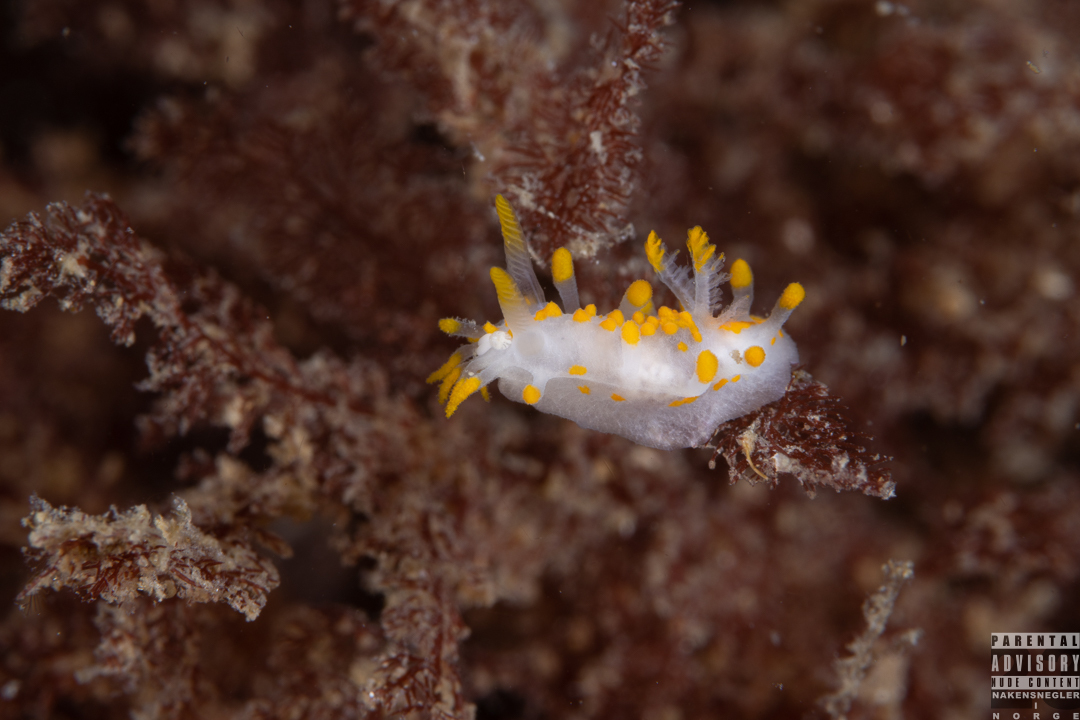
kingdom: Animalia
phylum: Mollusca
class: Gastropoda
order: Nudibranchia
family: Polyceridae
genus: Limacia
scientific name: Limacia clavigera
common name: Orange-clubbed sea slug
